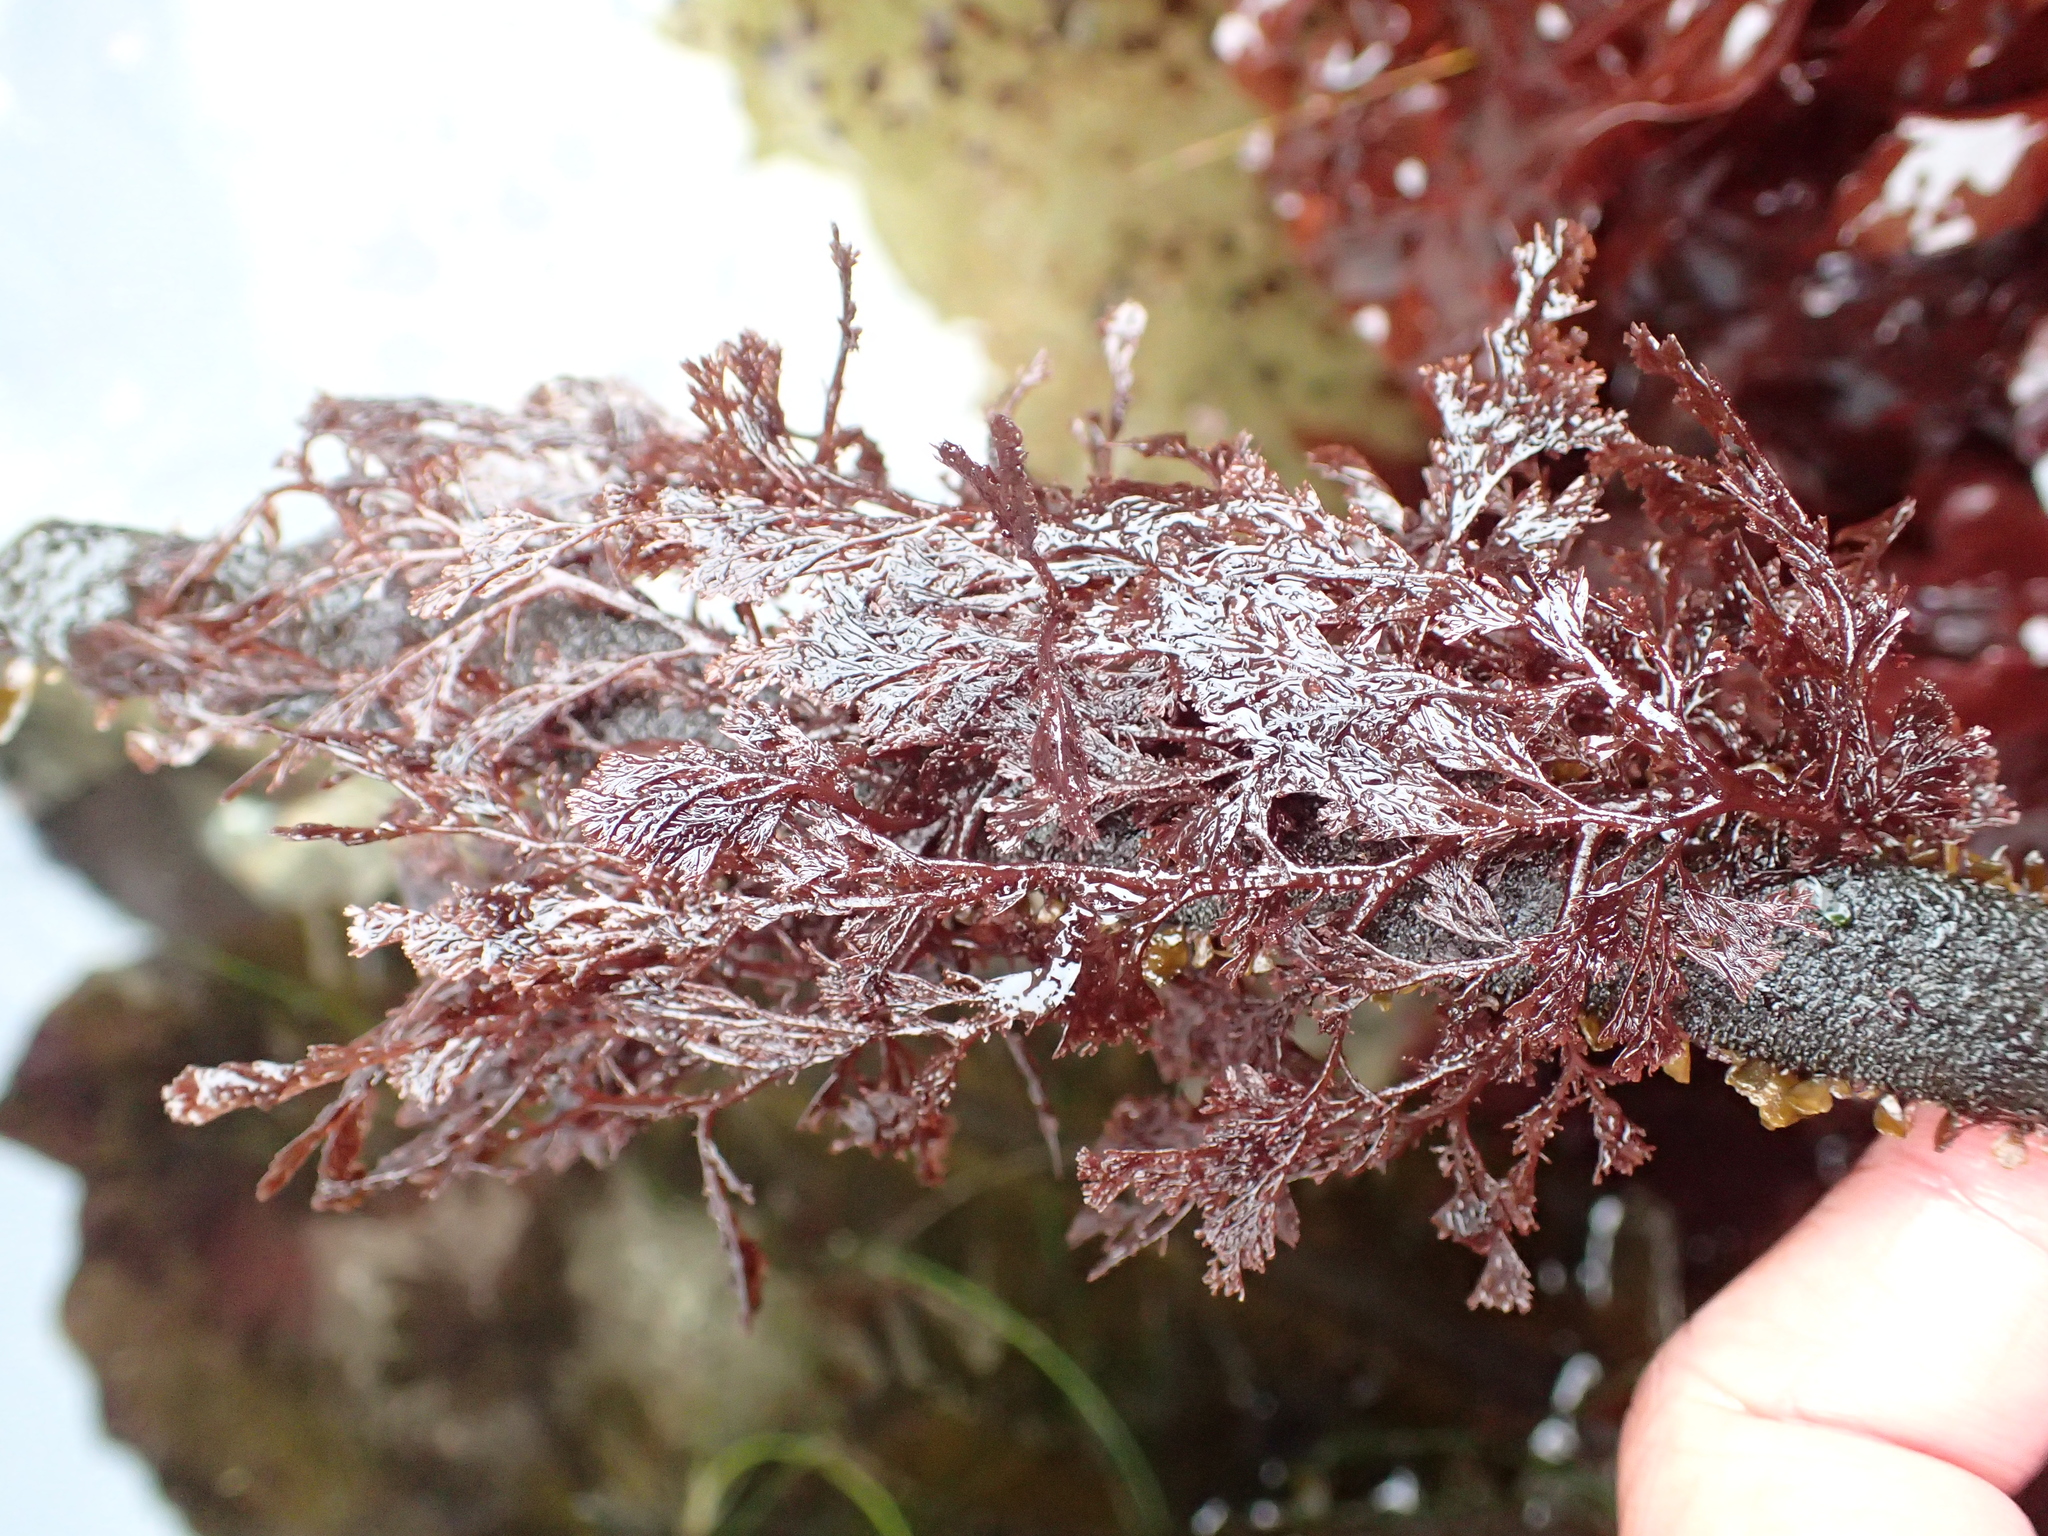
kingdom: Plantae
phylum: Rhodophyta
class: Florideophyceae
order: Ceramiales
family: Ceramiaceae
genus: Microcladia
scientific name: Microcladia coulteri
